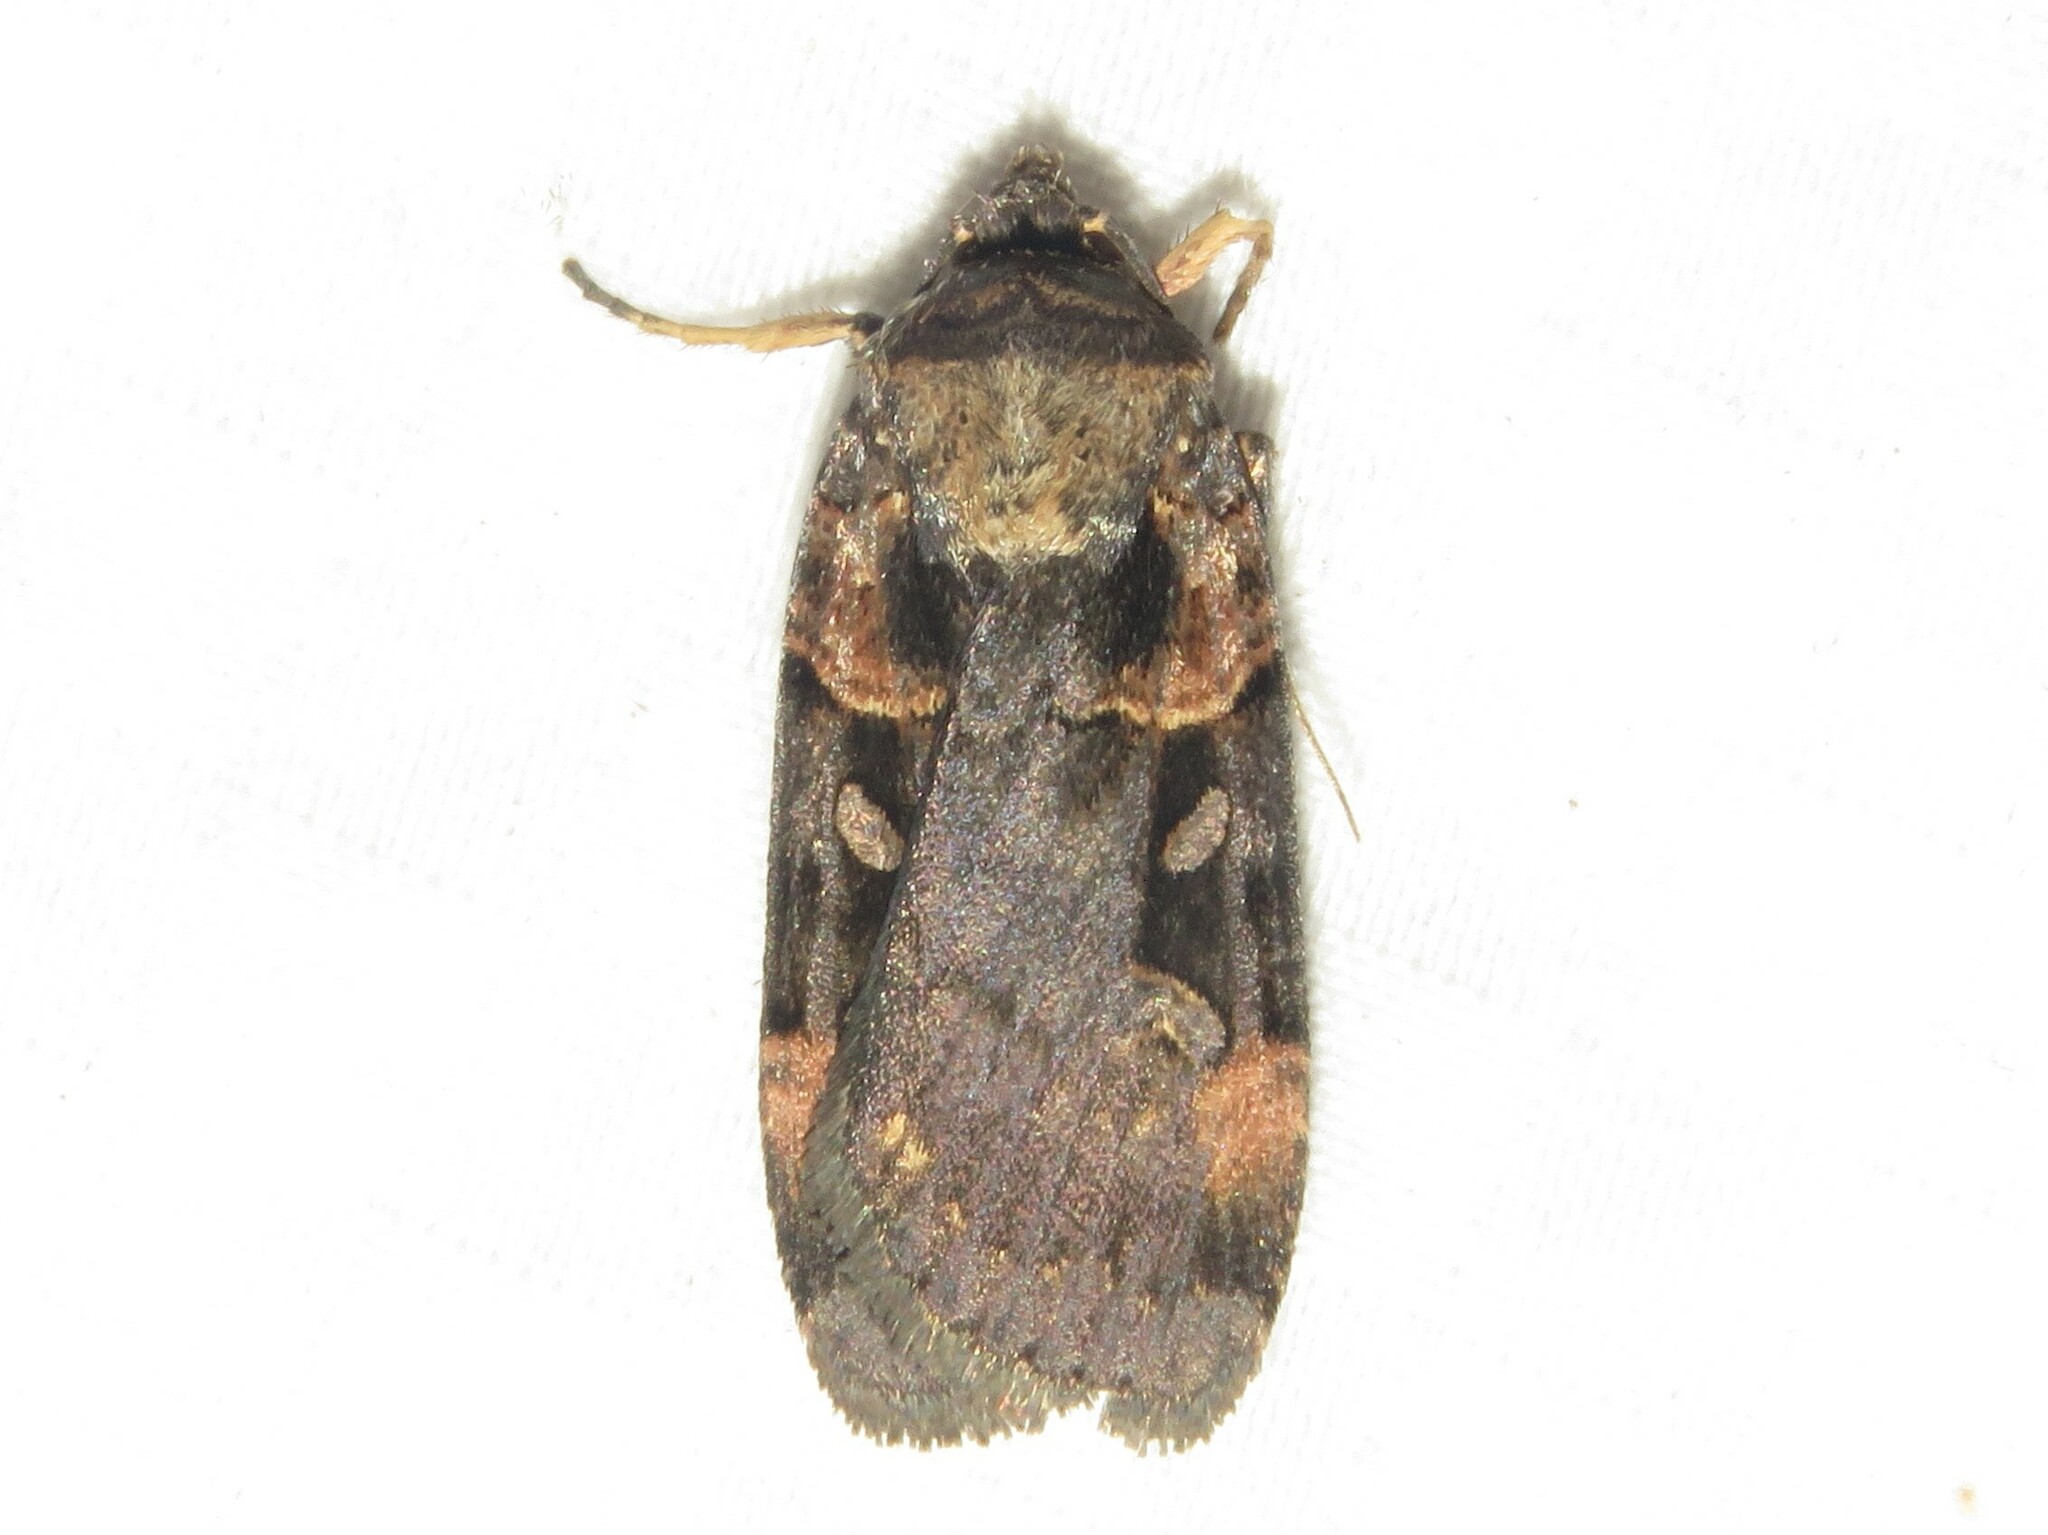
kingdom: Animalia
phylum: Arthropoda
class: Insecta
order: Lepidoptera
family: Noctuidae
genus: Pseudohermonassa
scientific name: Pseudohermonassa bicarnea
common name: Pink spotted dart
